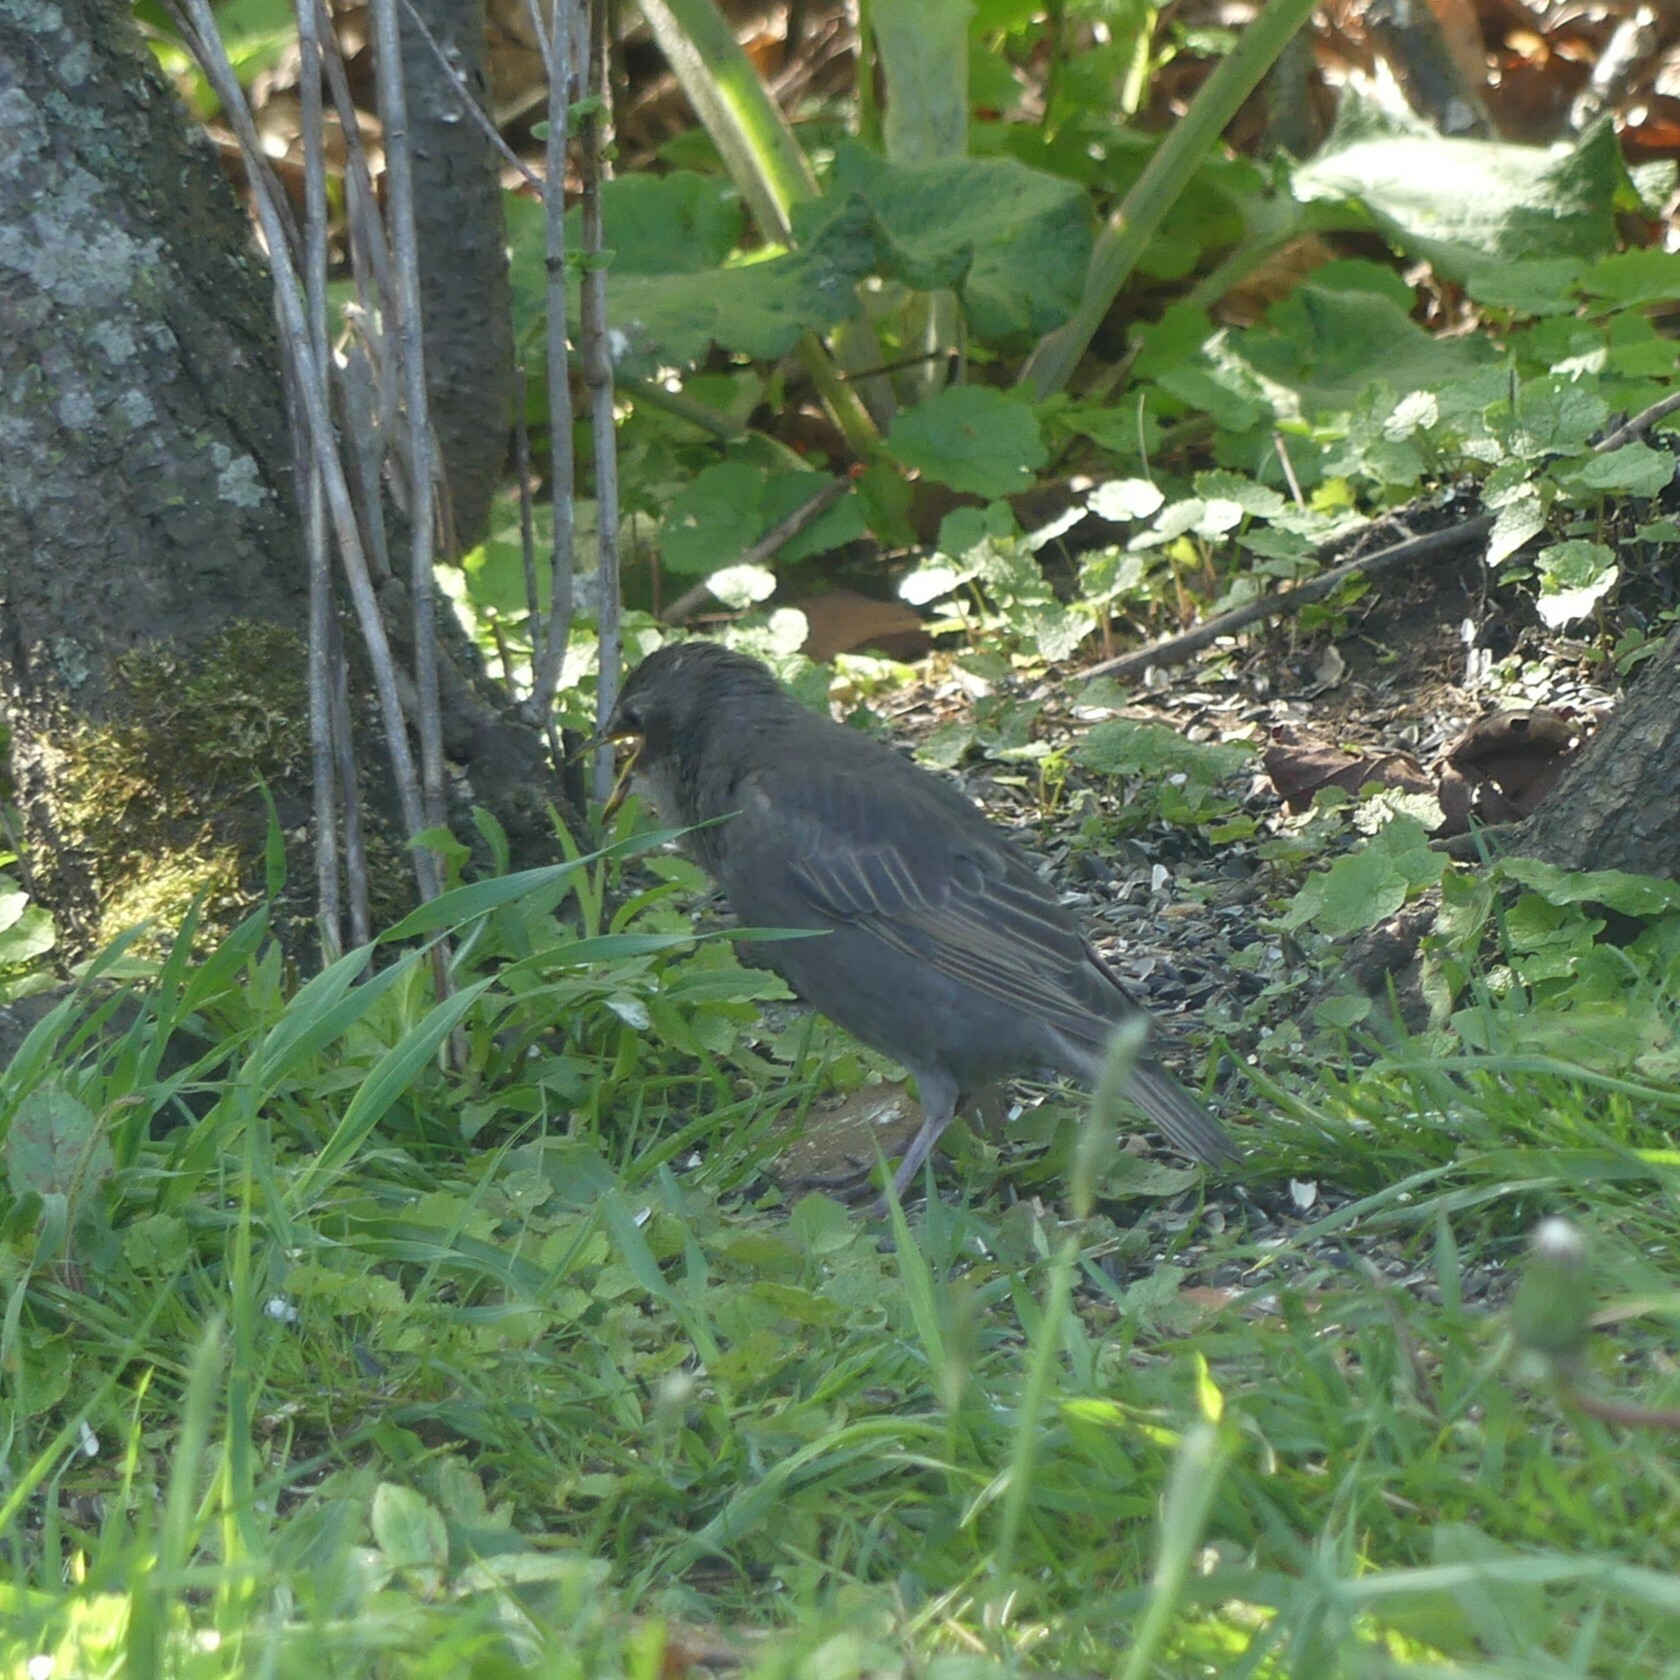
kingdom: Animalia
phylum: Chordata
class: Aves
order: Passeriformes
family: Sturnidae
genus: Sturnus
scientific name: Sturnus vulgaris
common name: Common starling
